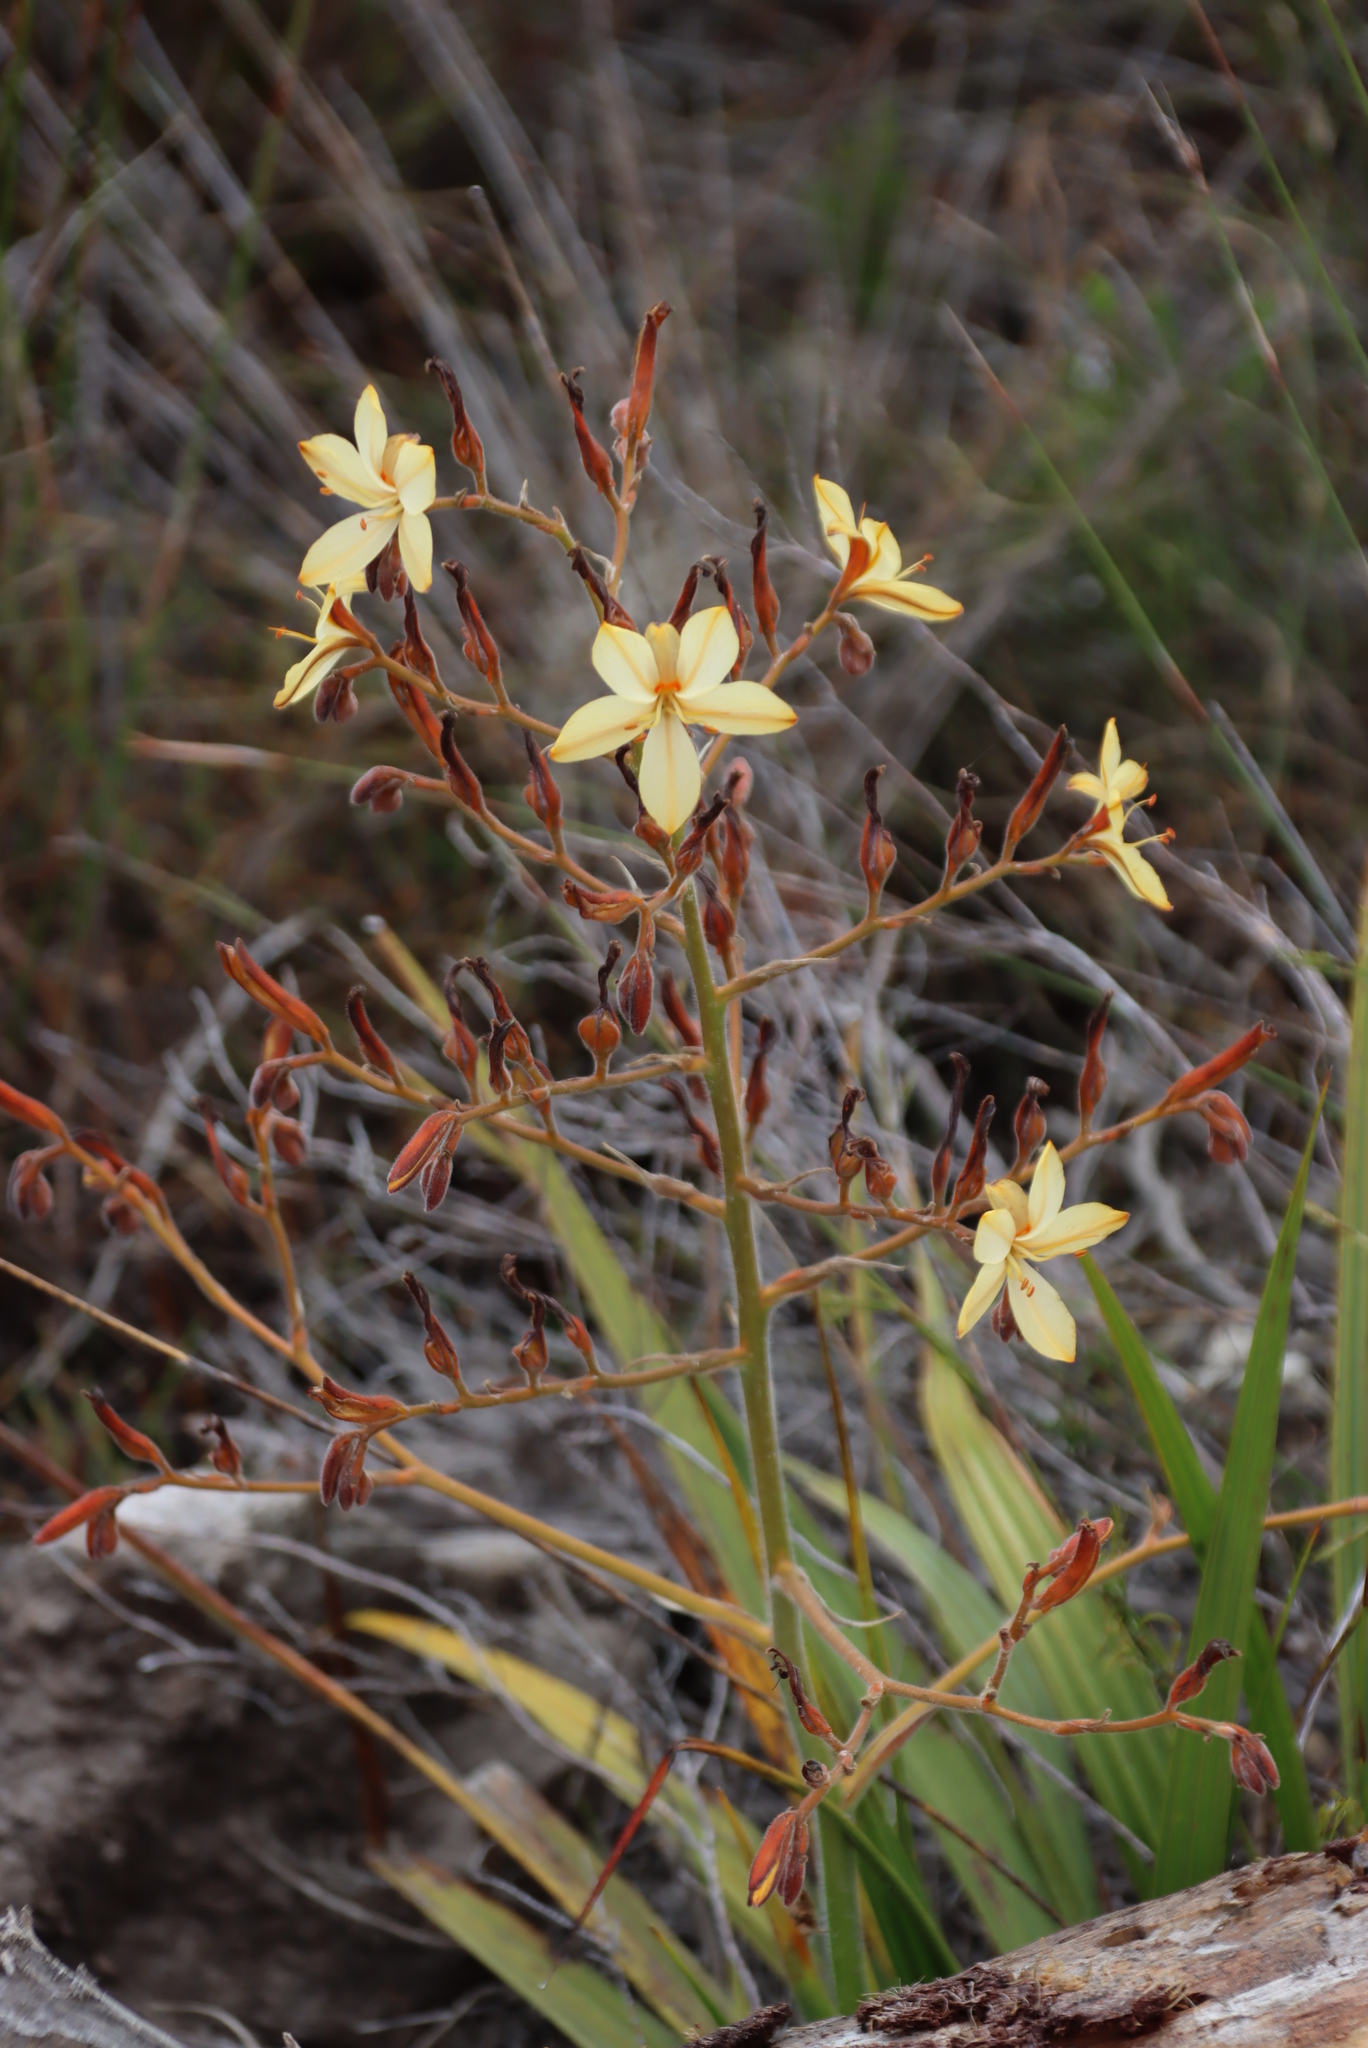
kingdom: Plantae
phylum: Tracheophyta
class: Liliopsida
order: Commelinales
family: Haemodoraceae
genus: Wachendorfia
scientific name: Wachendorfia paniculata
